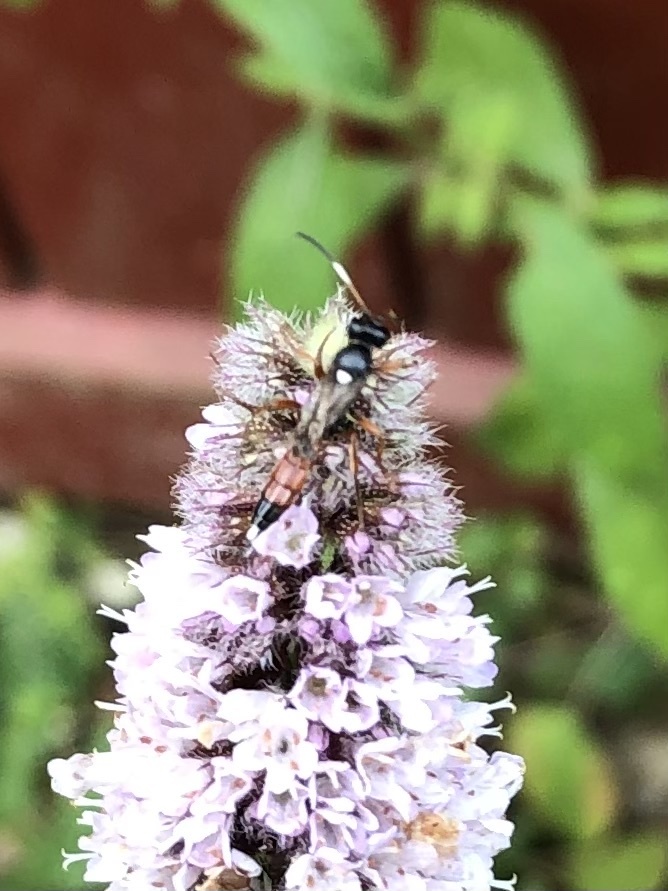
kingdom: Animalia
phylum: Arthropoda
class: Insecta
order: Hymenoptera
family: Ichneumonidae
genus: Chasmias
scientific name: Chasmias motatorius
